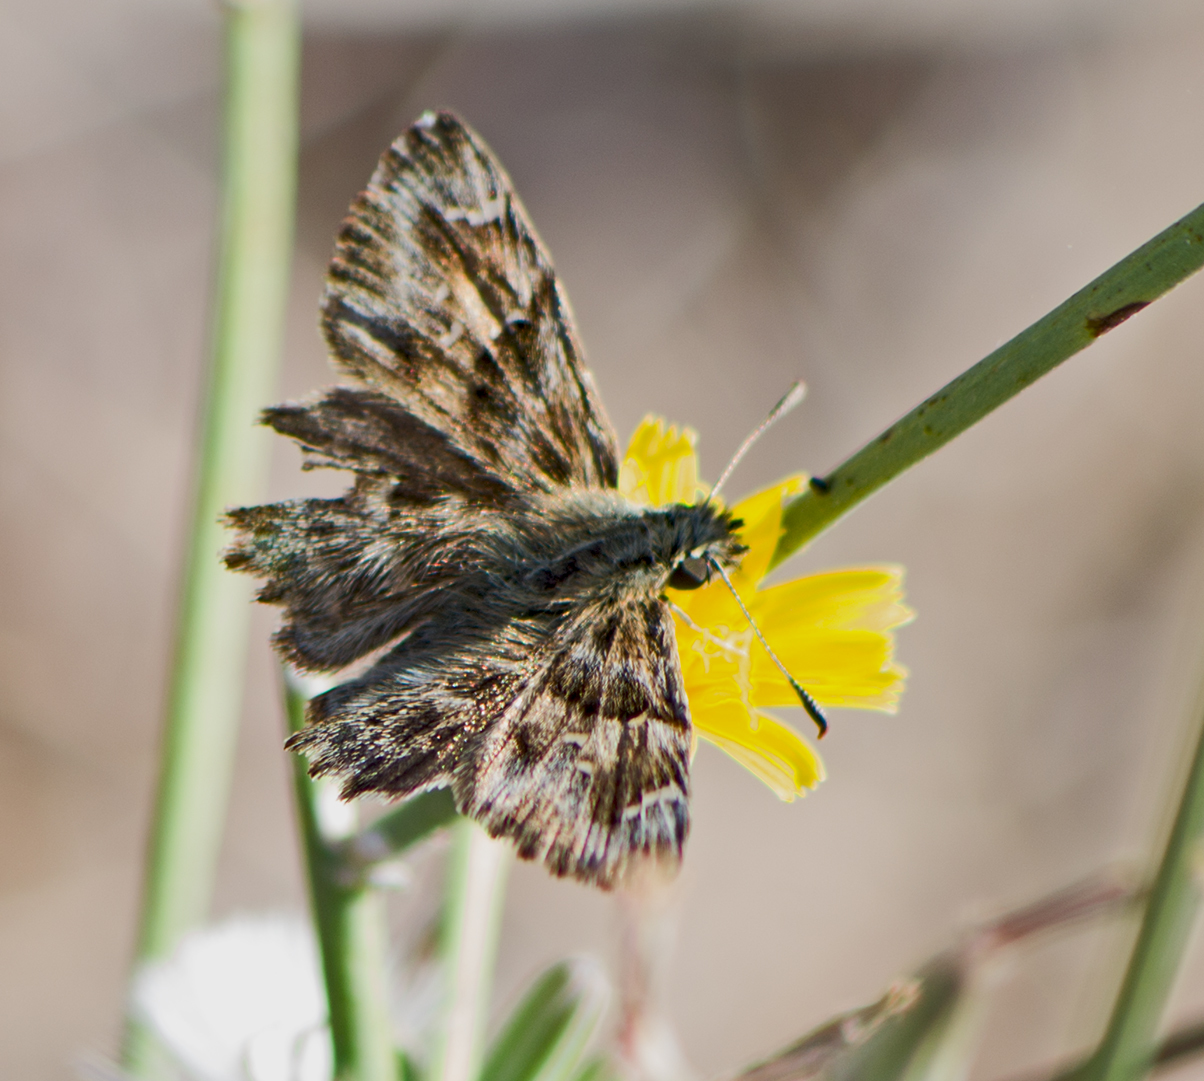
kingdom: Animalia
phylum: Arthropoda
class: Insecta
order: Lepidoptera
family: Hesperiidae
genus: Carcharodus
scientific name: Carcharodus alceae
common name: Mallow skipper
